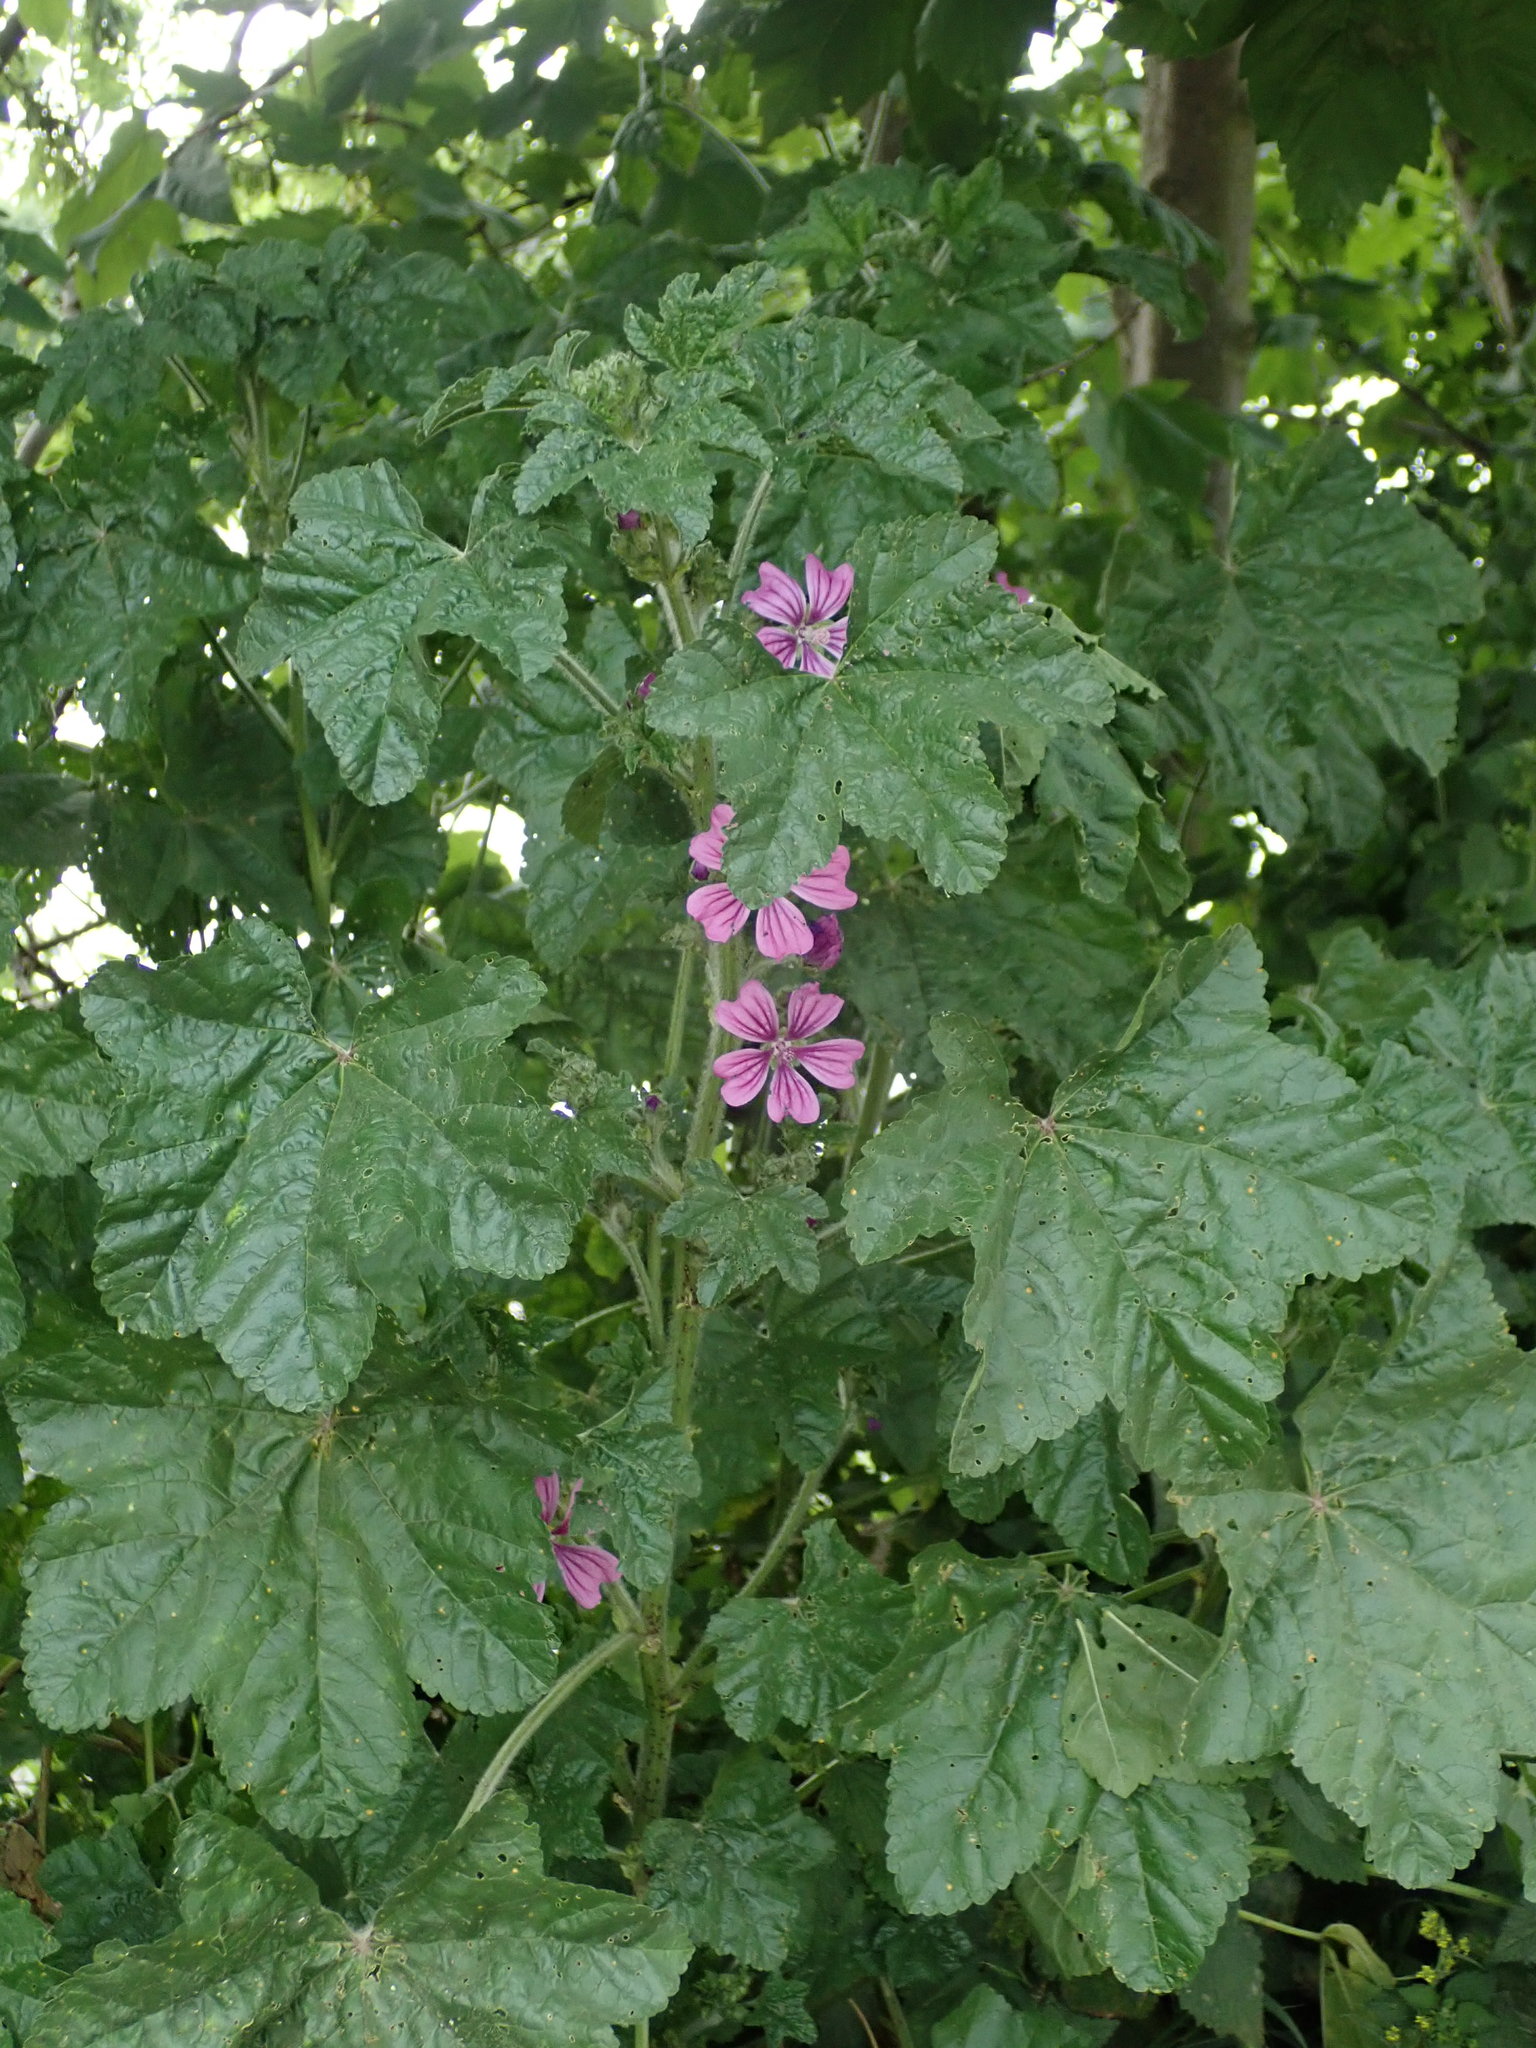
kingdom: Plantae
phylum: Tracheophyta
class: Magnoliopsida
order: Malvales
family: Malvaceae
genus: Malva
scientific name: Malva sylvestris
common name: Common mallow
